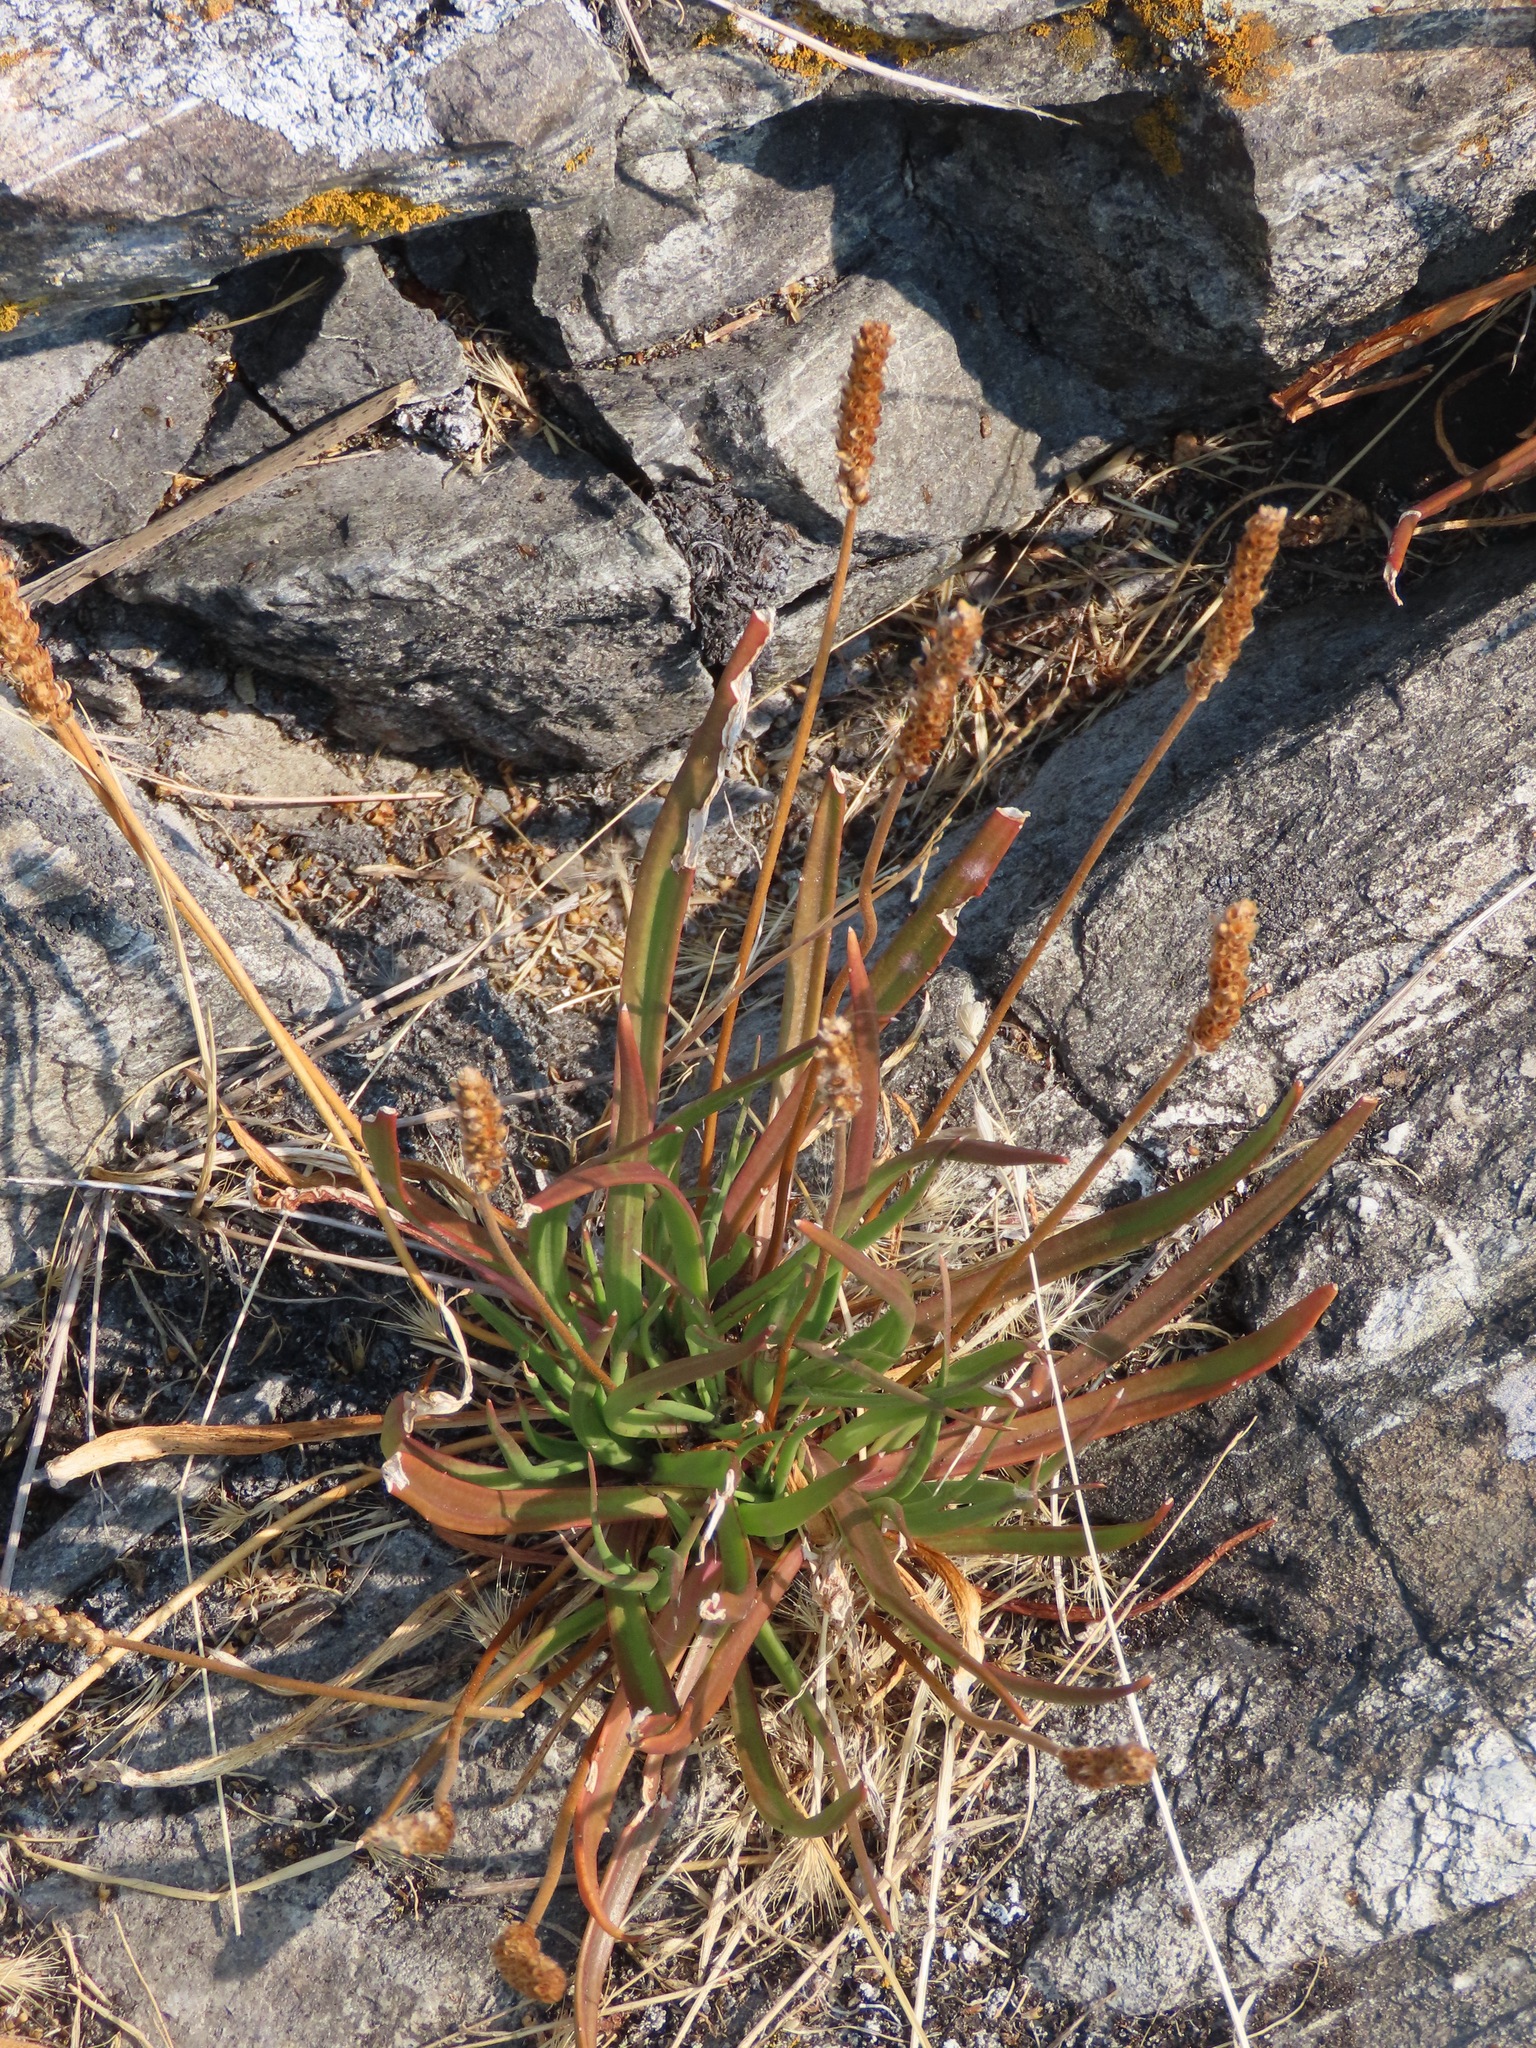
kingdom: Plantae
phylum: Tracheophyta
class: Magnoliopsida
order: Lamiales
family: Plantaginaceae
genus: Plantago
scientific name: Plantago maritima
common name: Sea plantain
